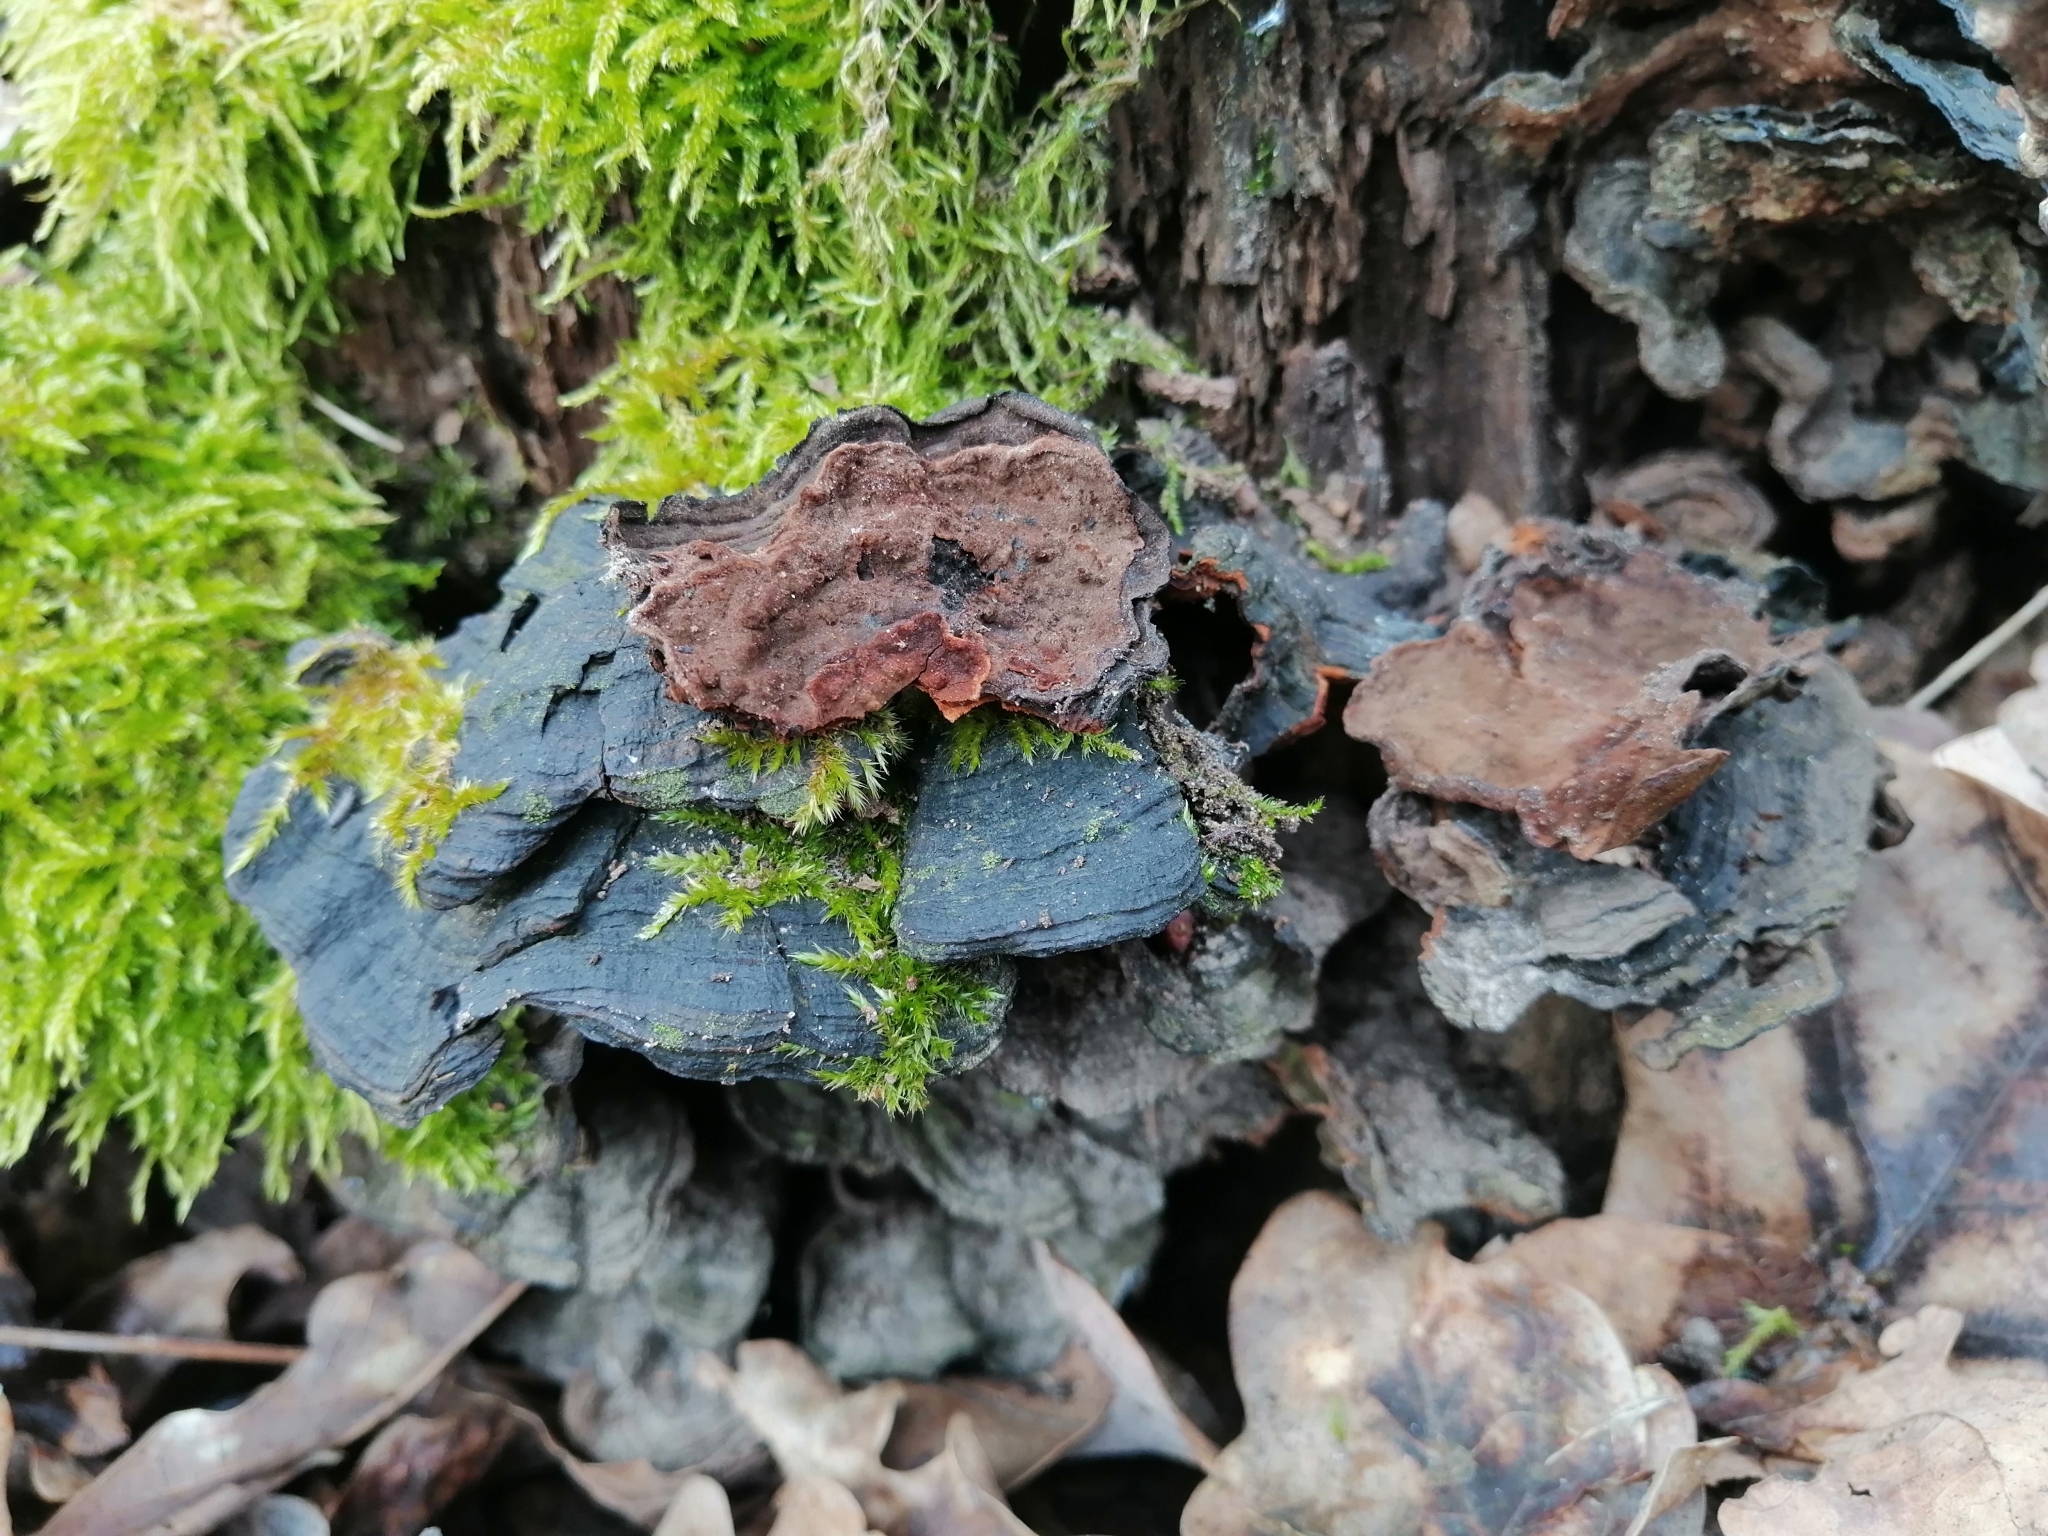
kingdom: Fungi
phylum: Basidiomycota
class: Agaricomycetes
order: Hymenochaetales
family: Hymenochaetaceae
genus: Hymenochaete
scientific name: Hymenochaete rubiginosa
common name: Oak curtain crust
